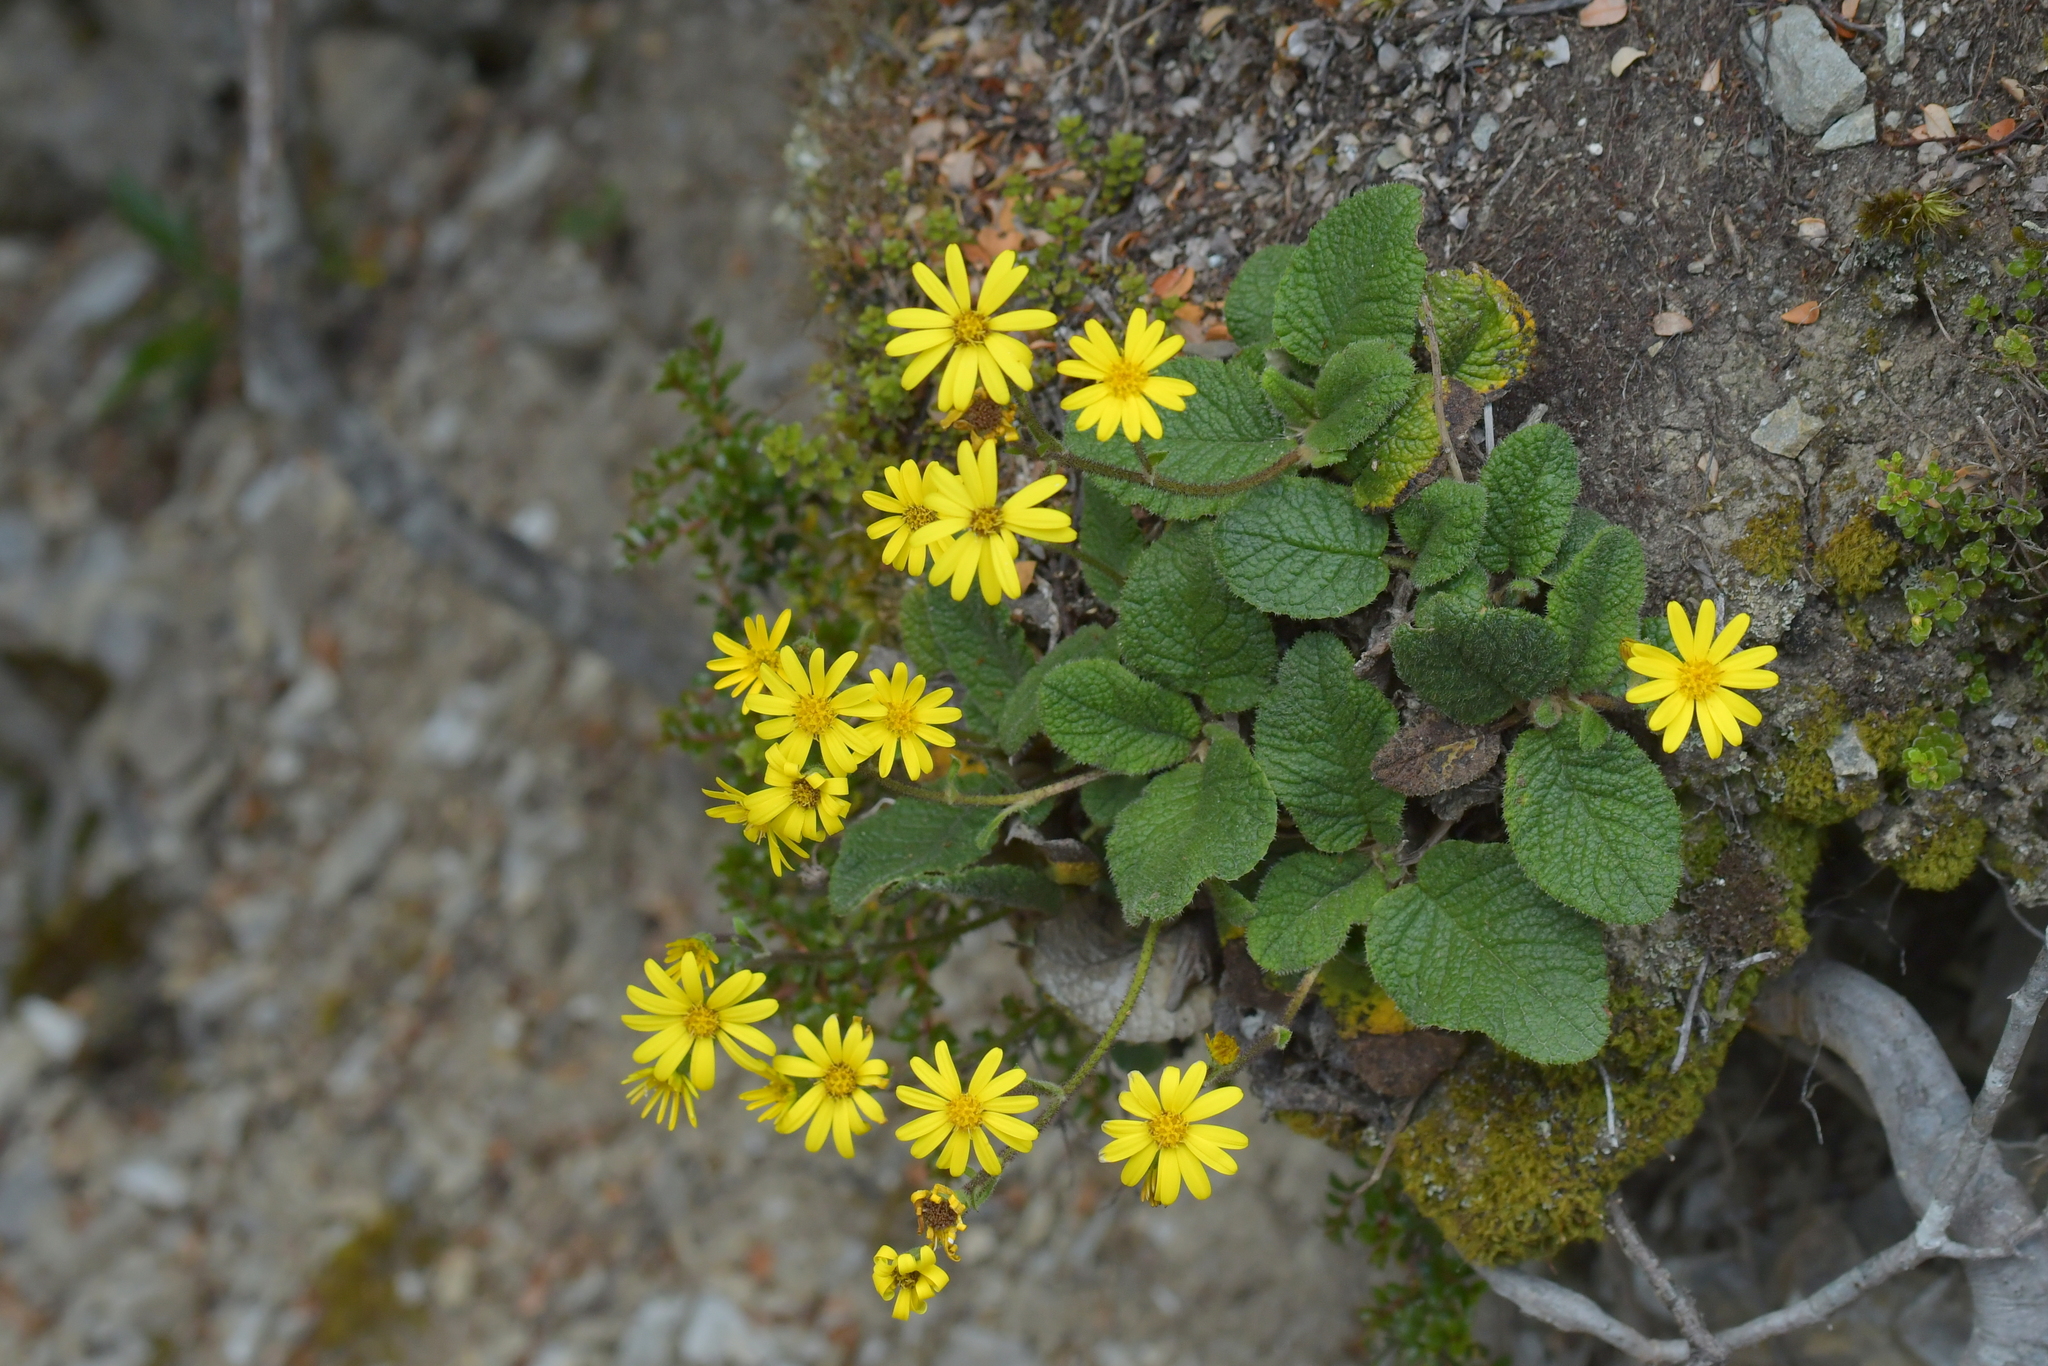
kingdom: Plantae
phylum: Tracheophyta
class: Magnoliopsida
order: Asterales
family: Asteraceae
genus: Brachyglottis
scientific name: Brachyglottis lagopus
